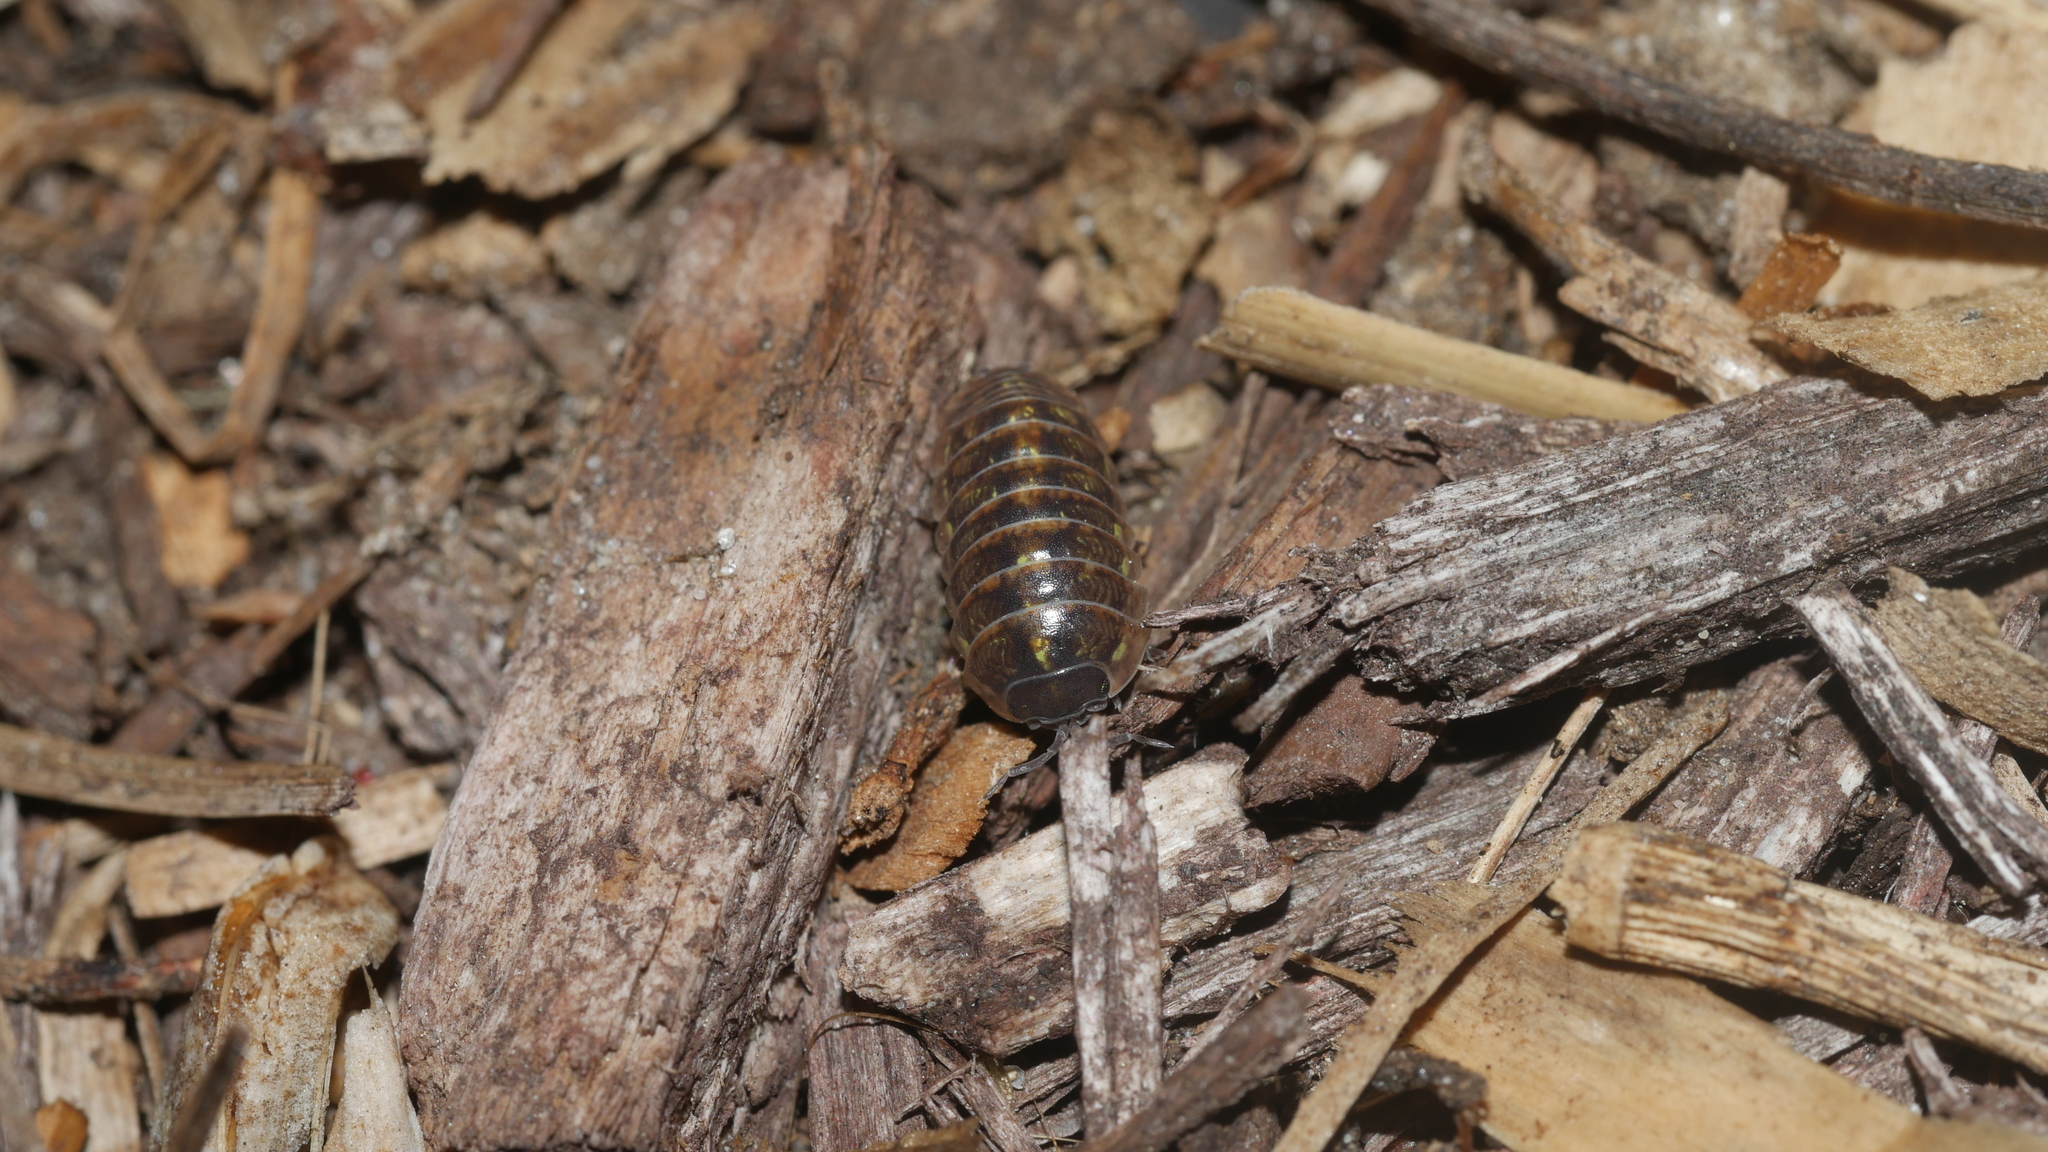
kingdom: Animalia
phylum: Arthropoda
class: Malacostraca
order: Isopoda
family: Armadillidiidae
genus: Armadillidium
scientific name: Armadillidium vulgare
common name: Common pill woodlouse
